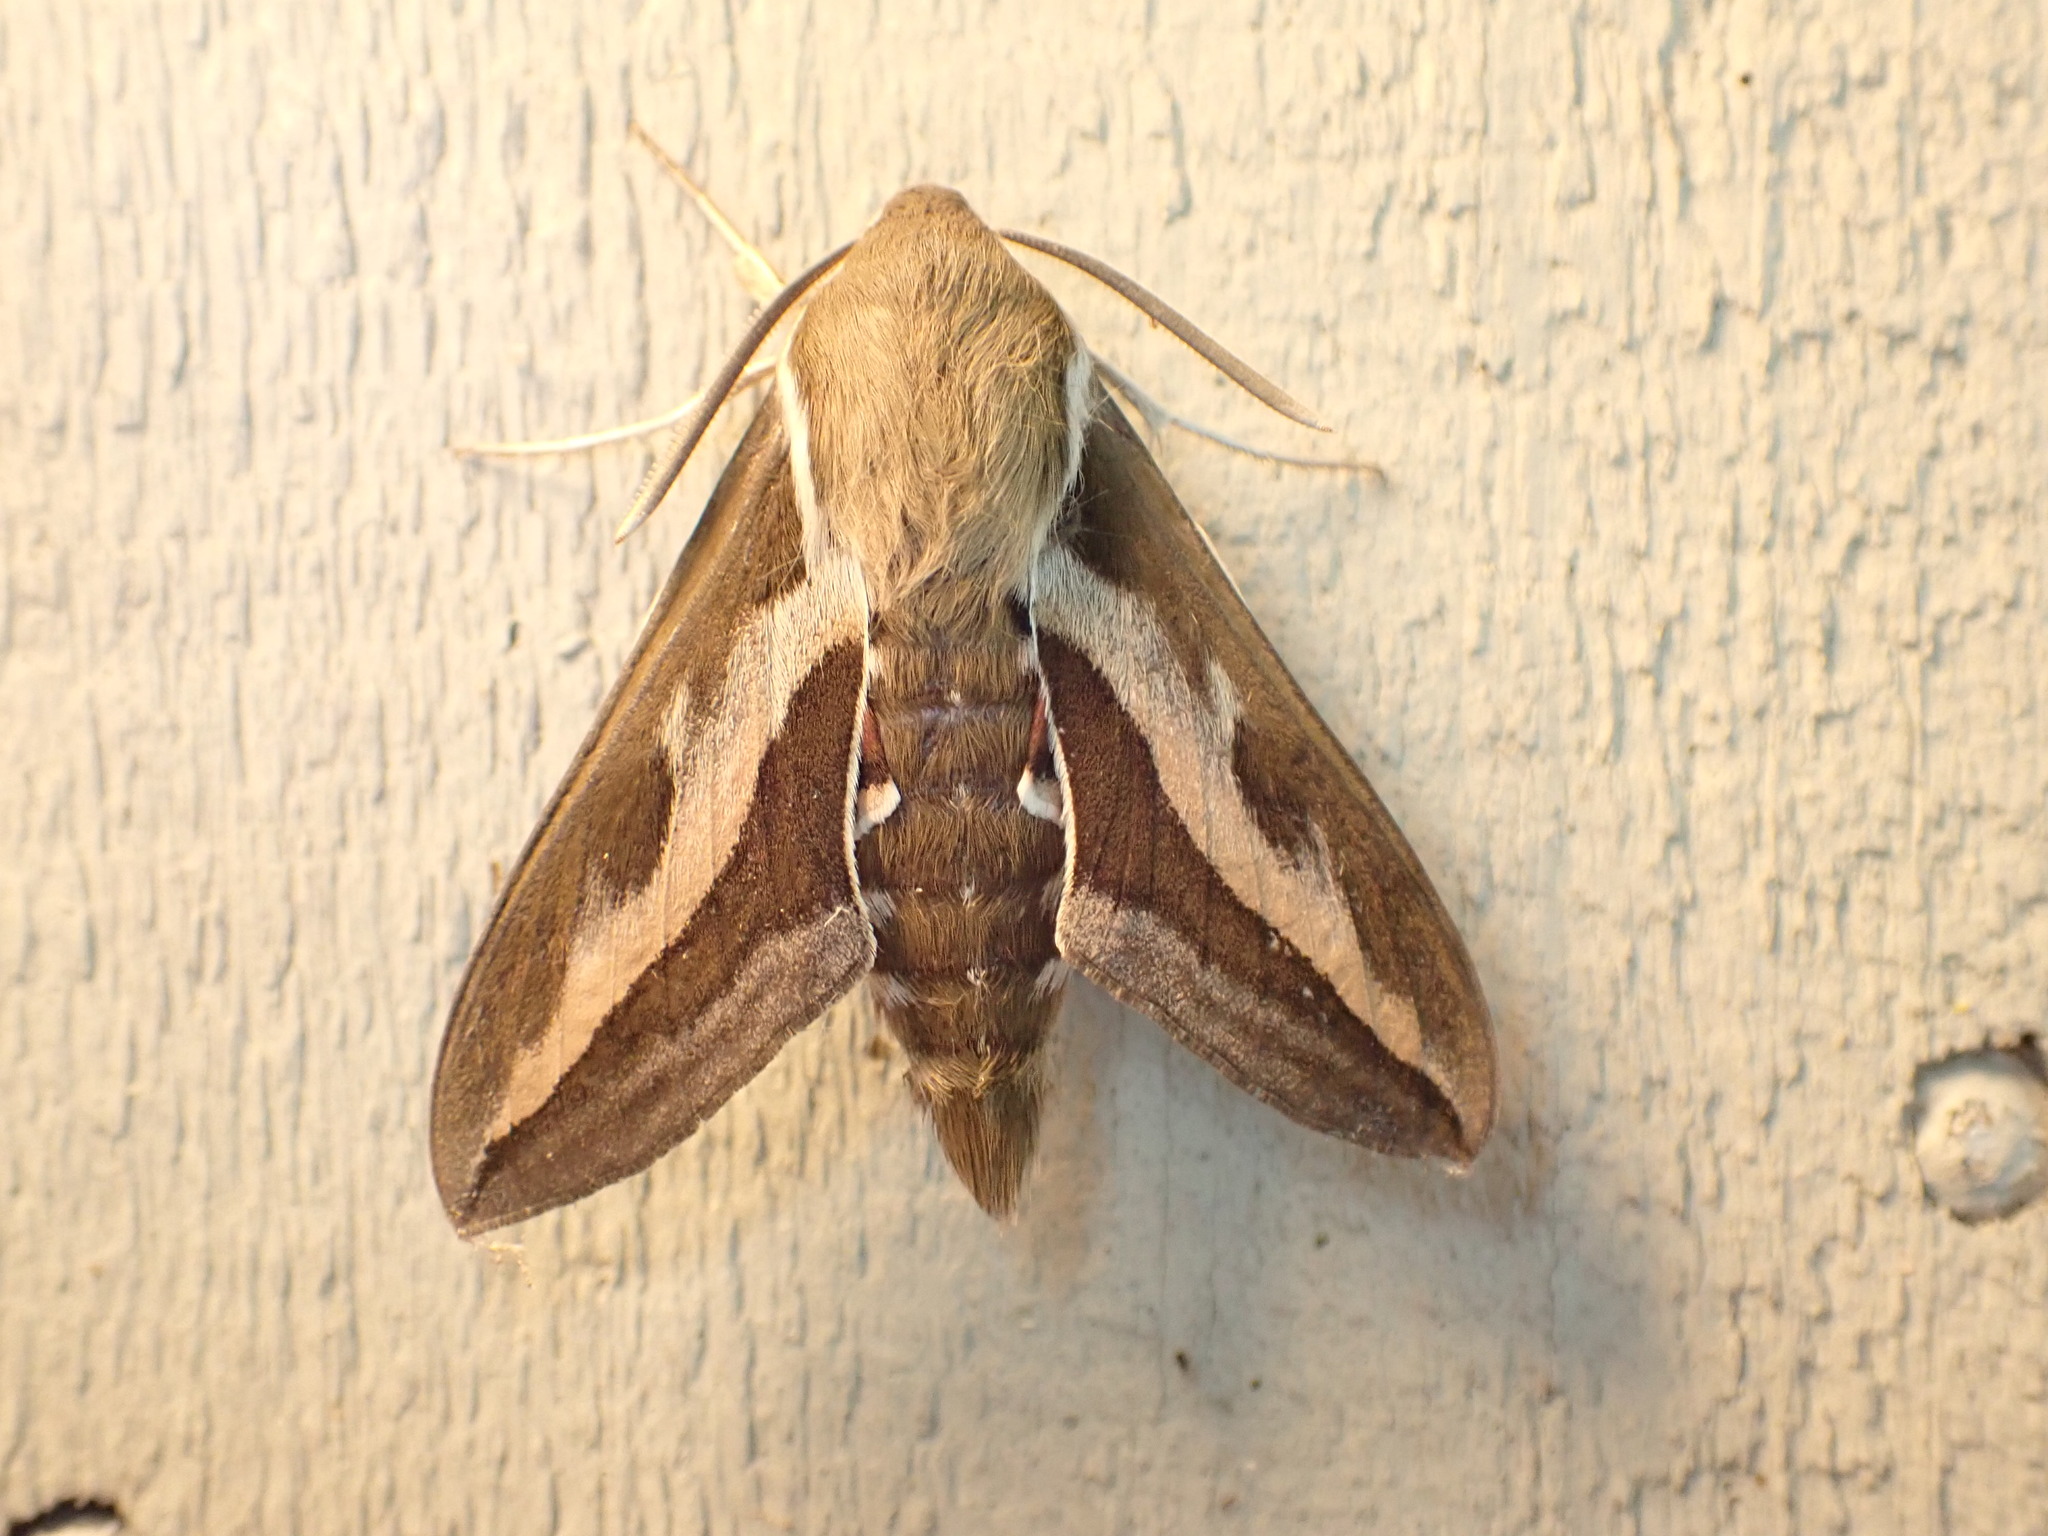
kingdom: Animalia
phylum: Arthropoda
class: Insecta
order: Lepidoptera
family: Sphingidae
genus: Hyles
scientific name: Hyles gallii
